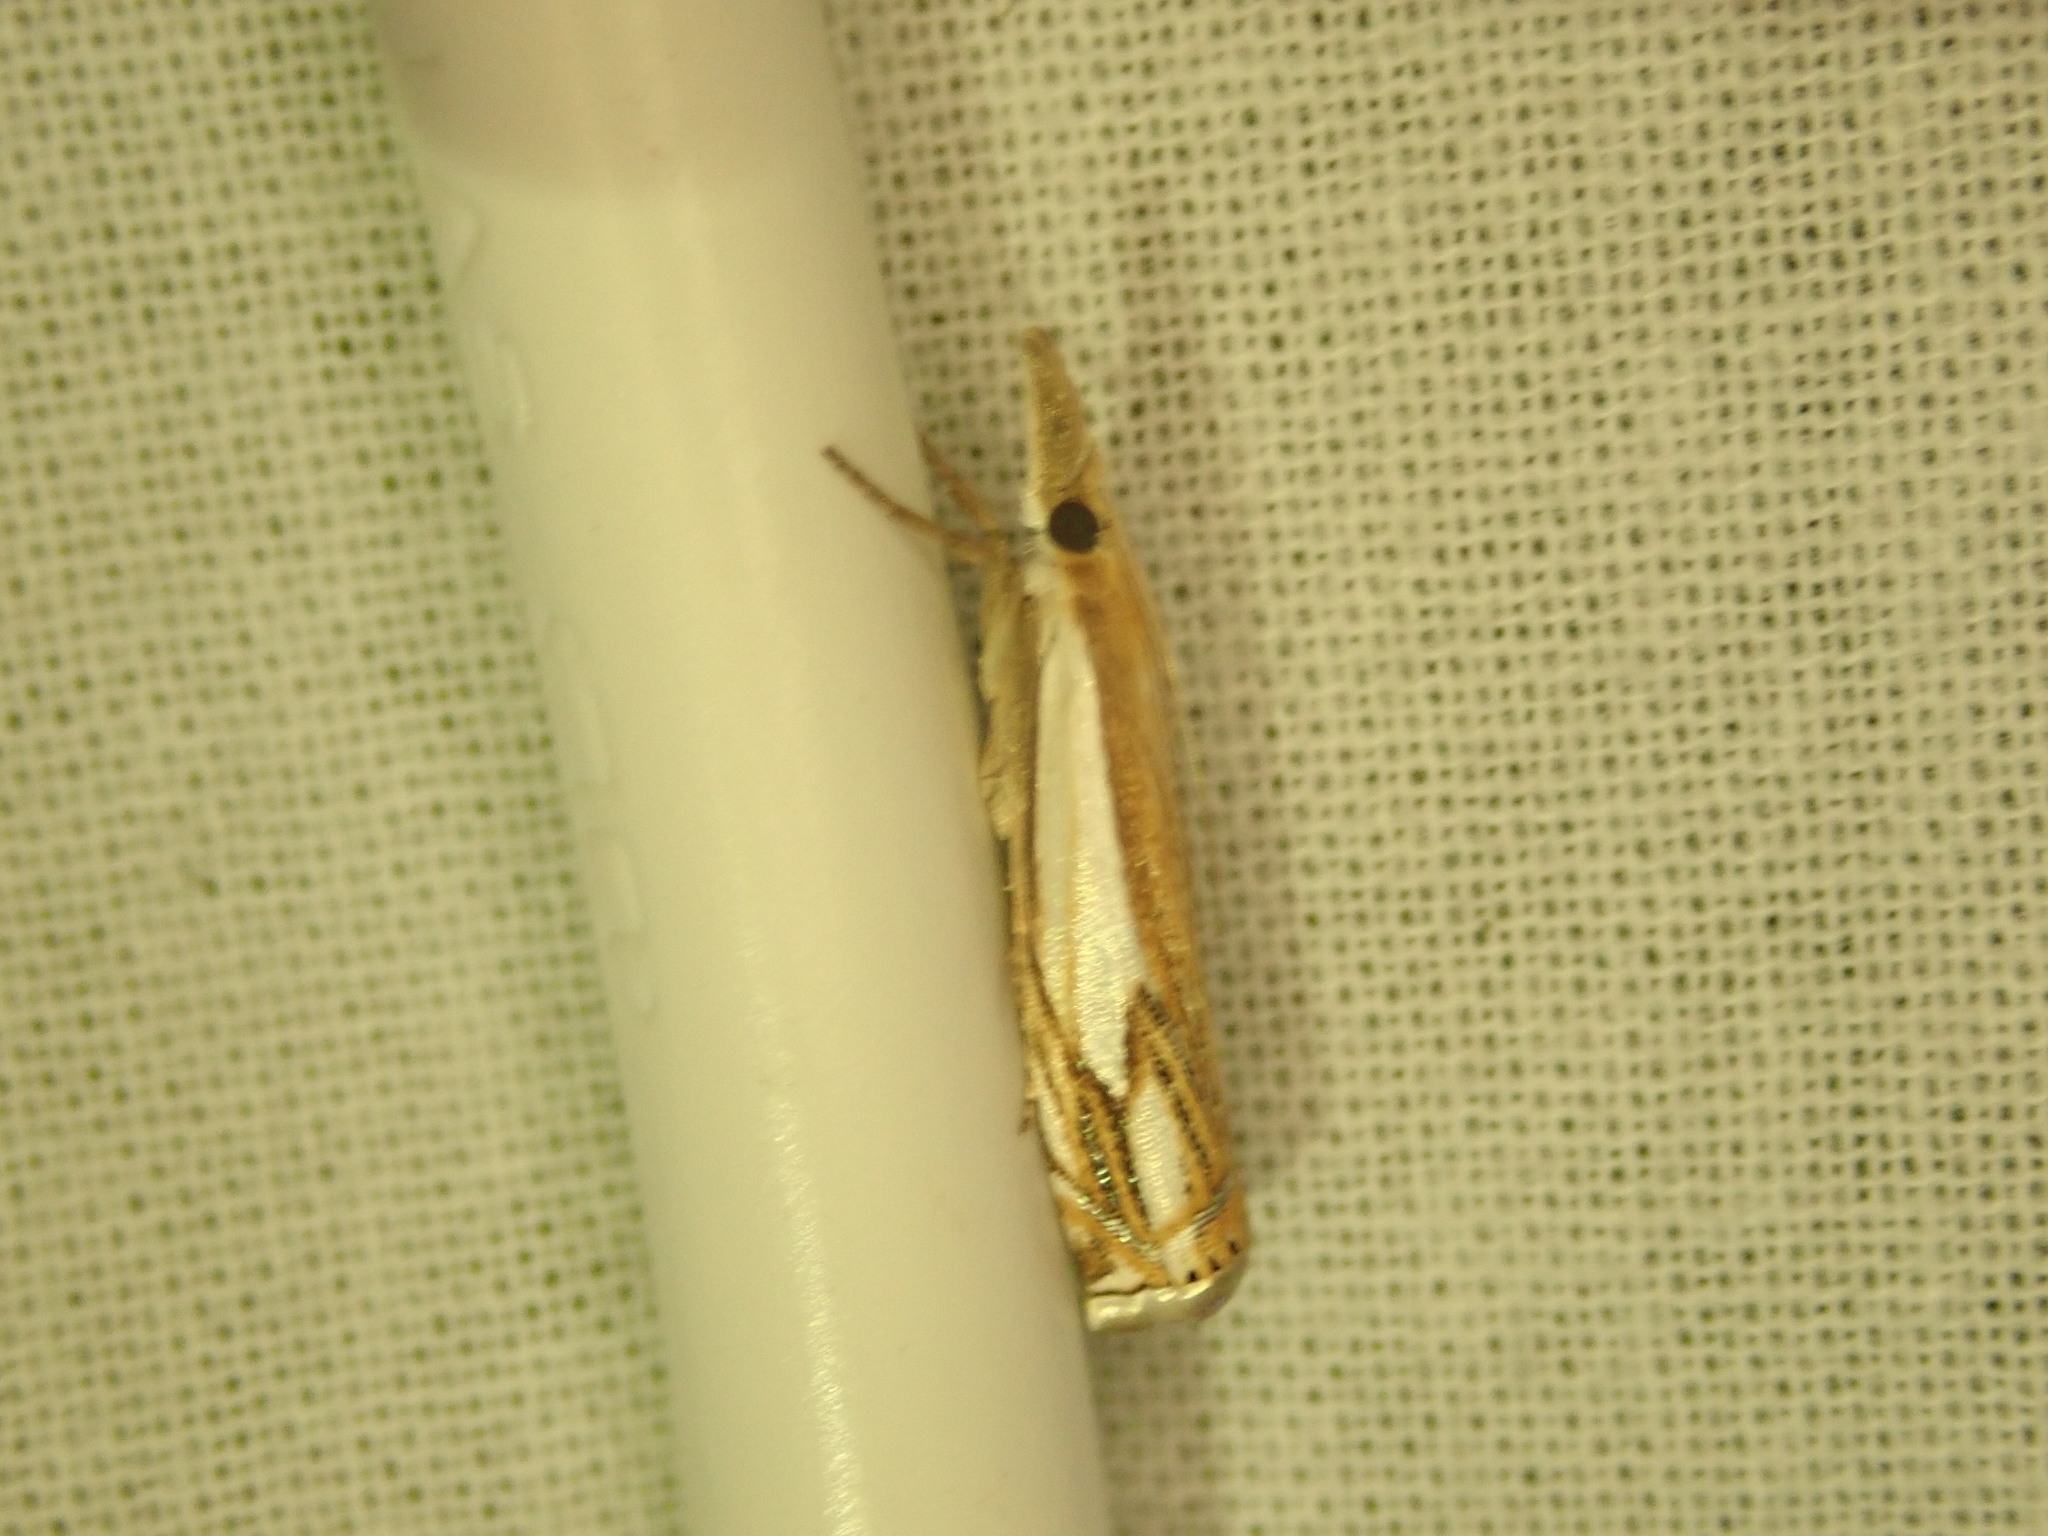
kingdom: Animalia
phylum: Arthropoda
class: Insecta
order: Lepidoptera
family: Crambidae
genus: Crambus
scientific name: Crambus agitatellus
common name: Double-banded grass-veneer
